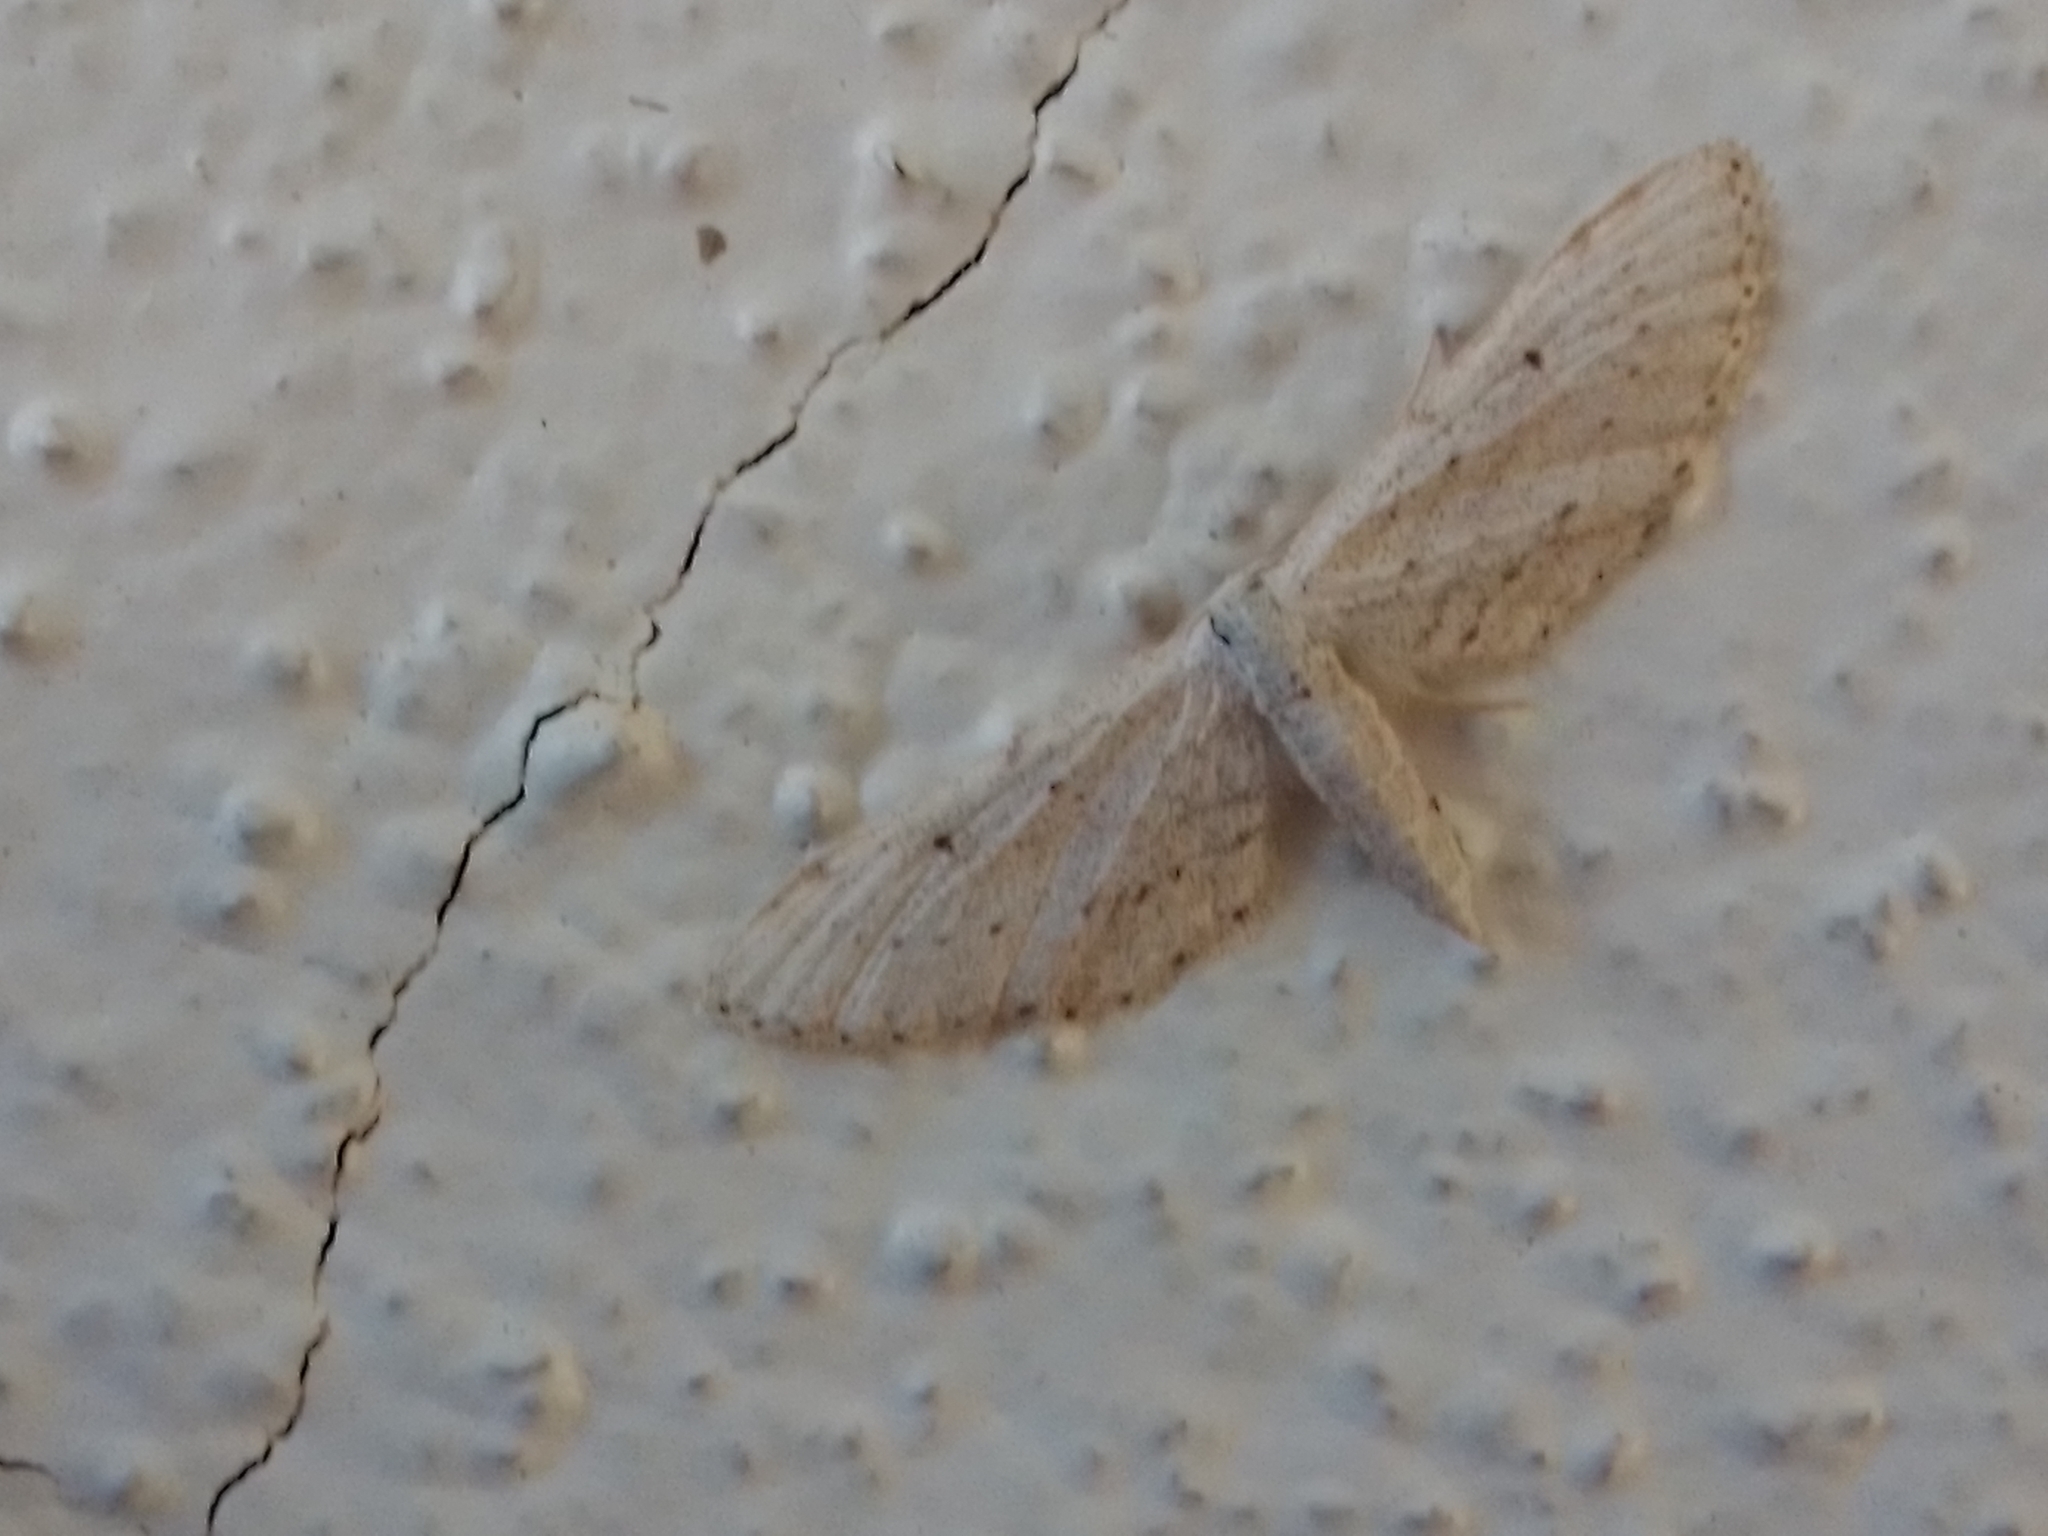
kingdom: Animalia
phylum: Arthropoda
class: Insecta
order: Lepidoptera
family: Geometridae
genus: Idaea
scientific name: Idaea longaria
